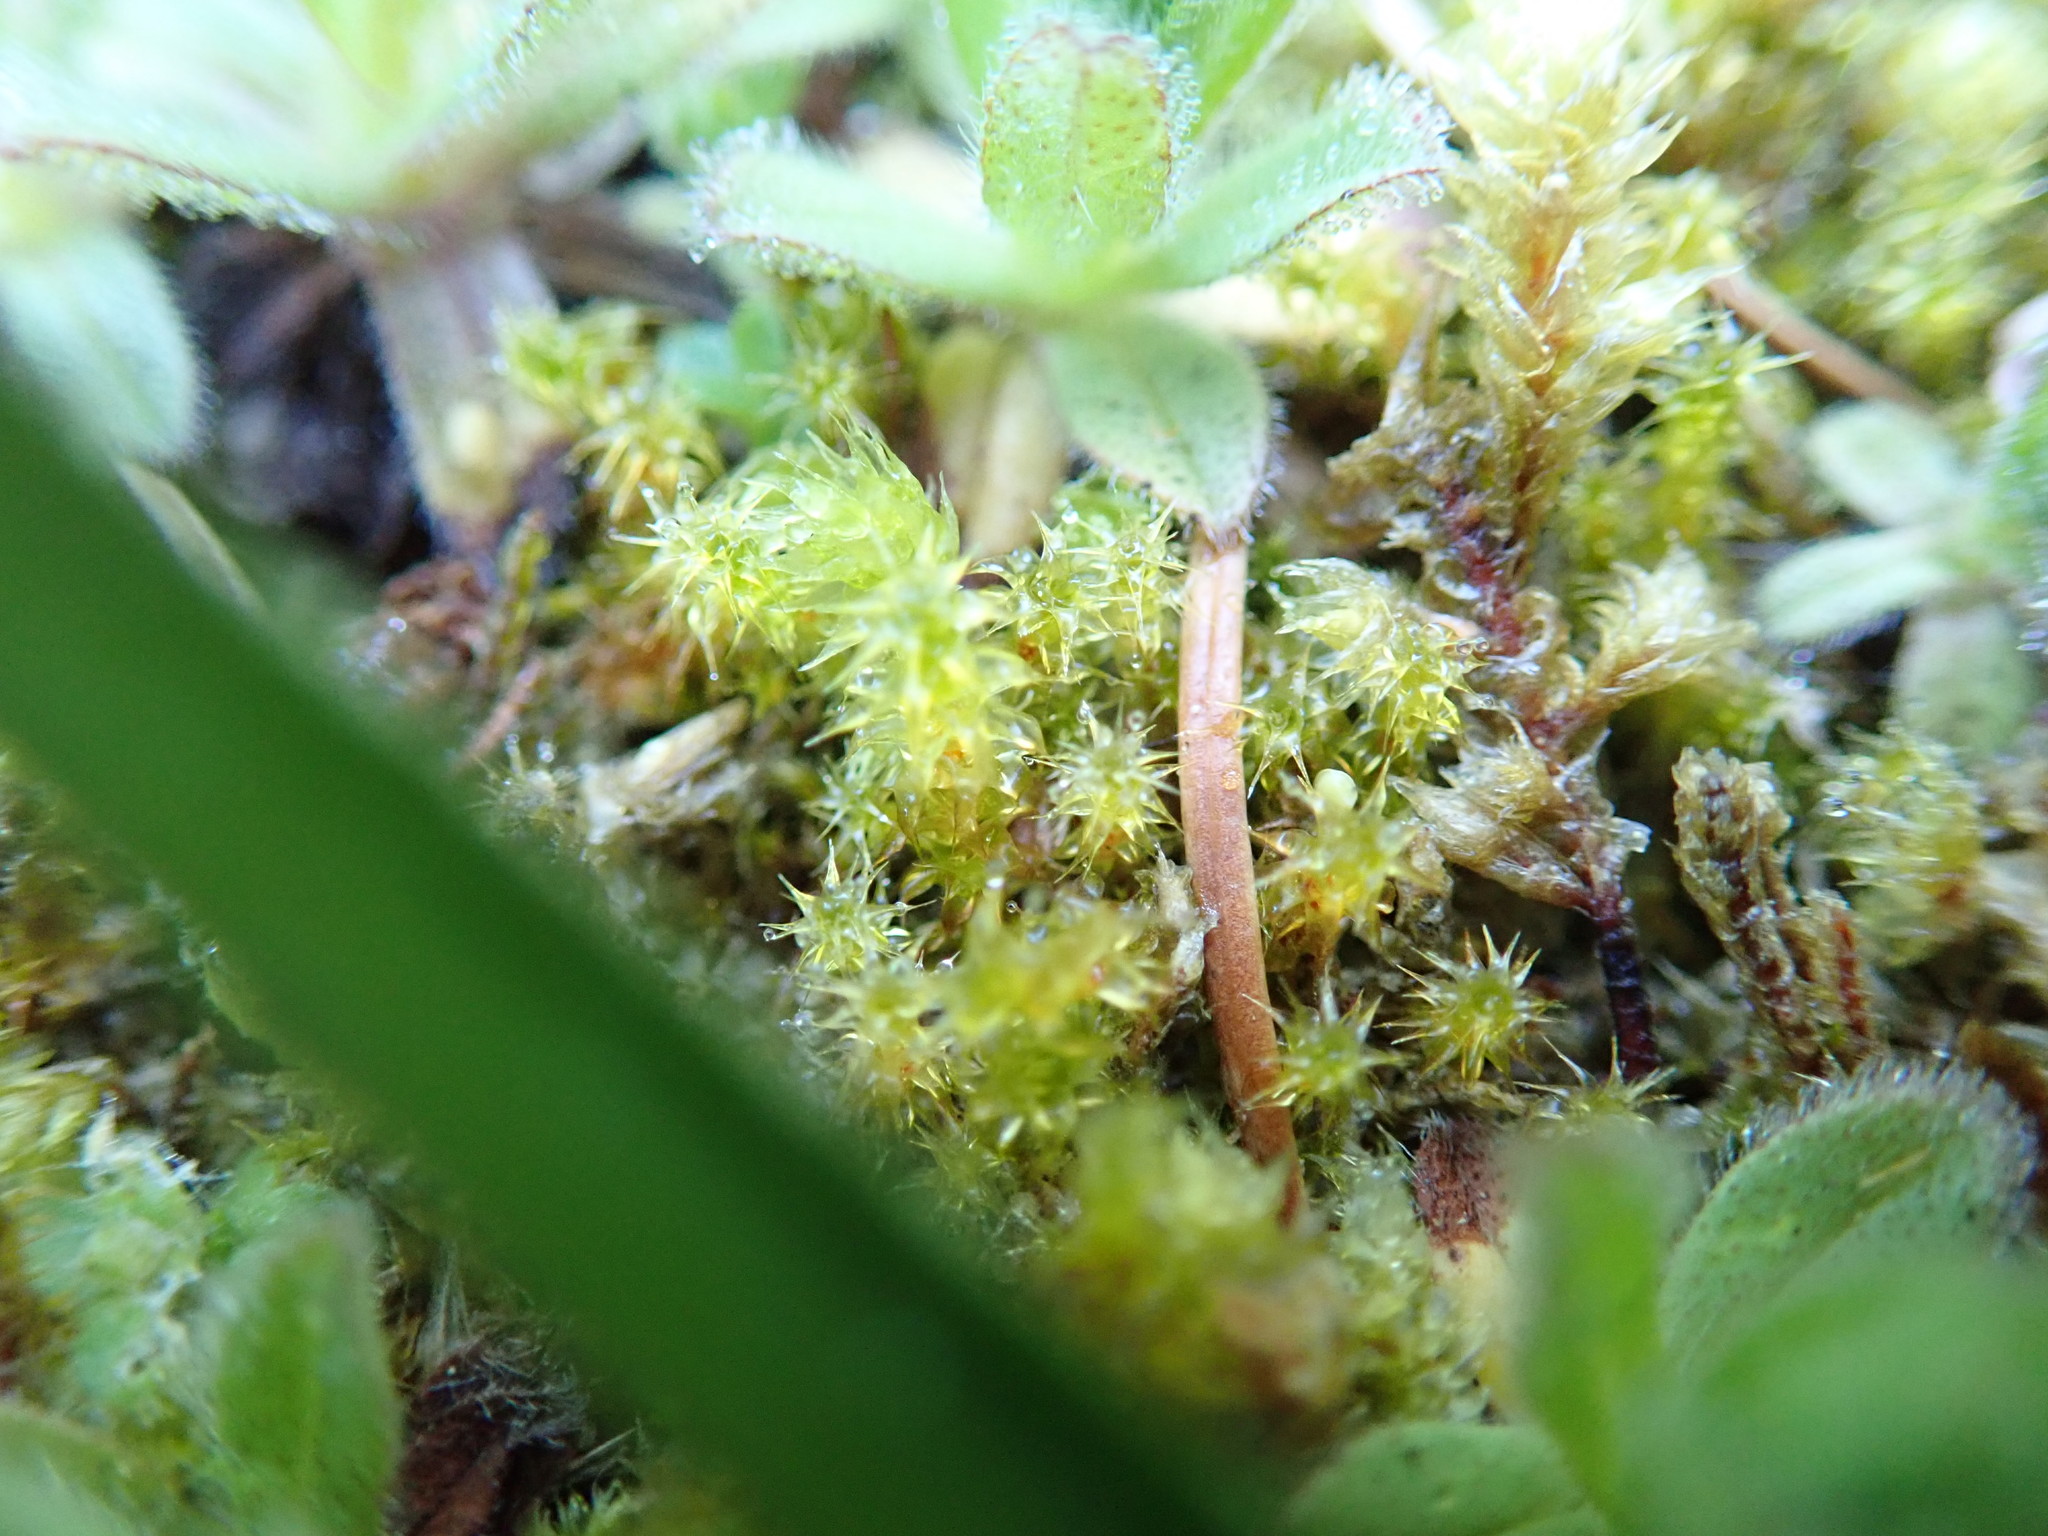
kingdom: Plantae
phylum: Bryophyta
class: Bryopsida
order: Hypnales
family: Hylocomiaceae
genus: Rhytidiadelphus
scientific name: Rhytidiadelphus squarrosus
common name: Springy turf-moss
